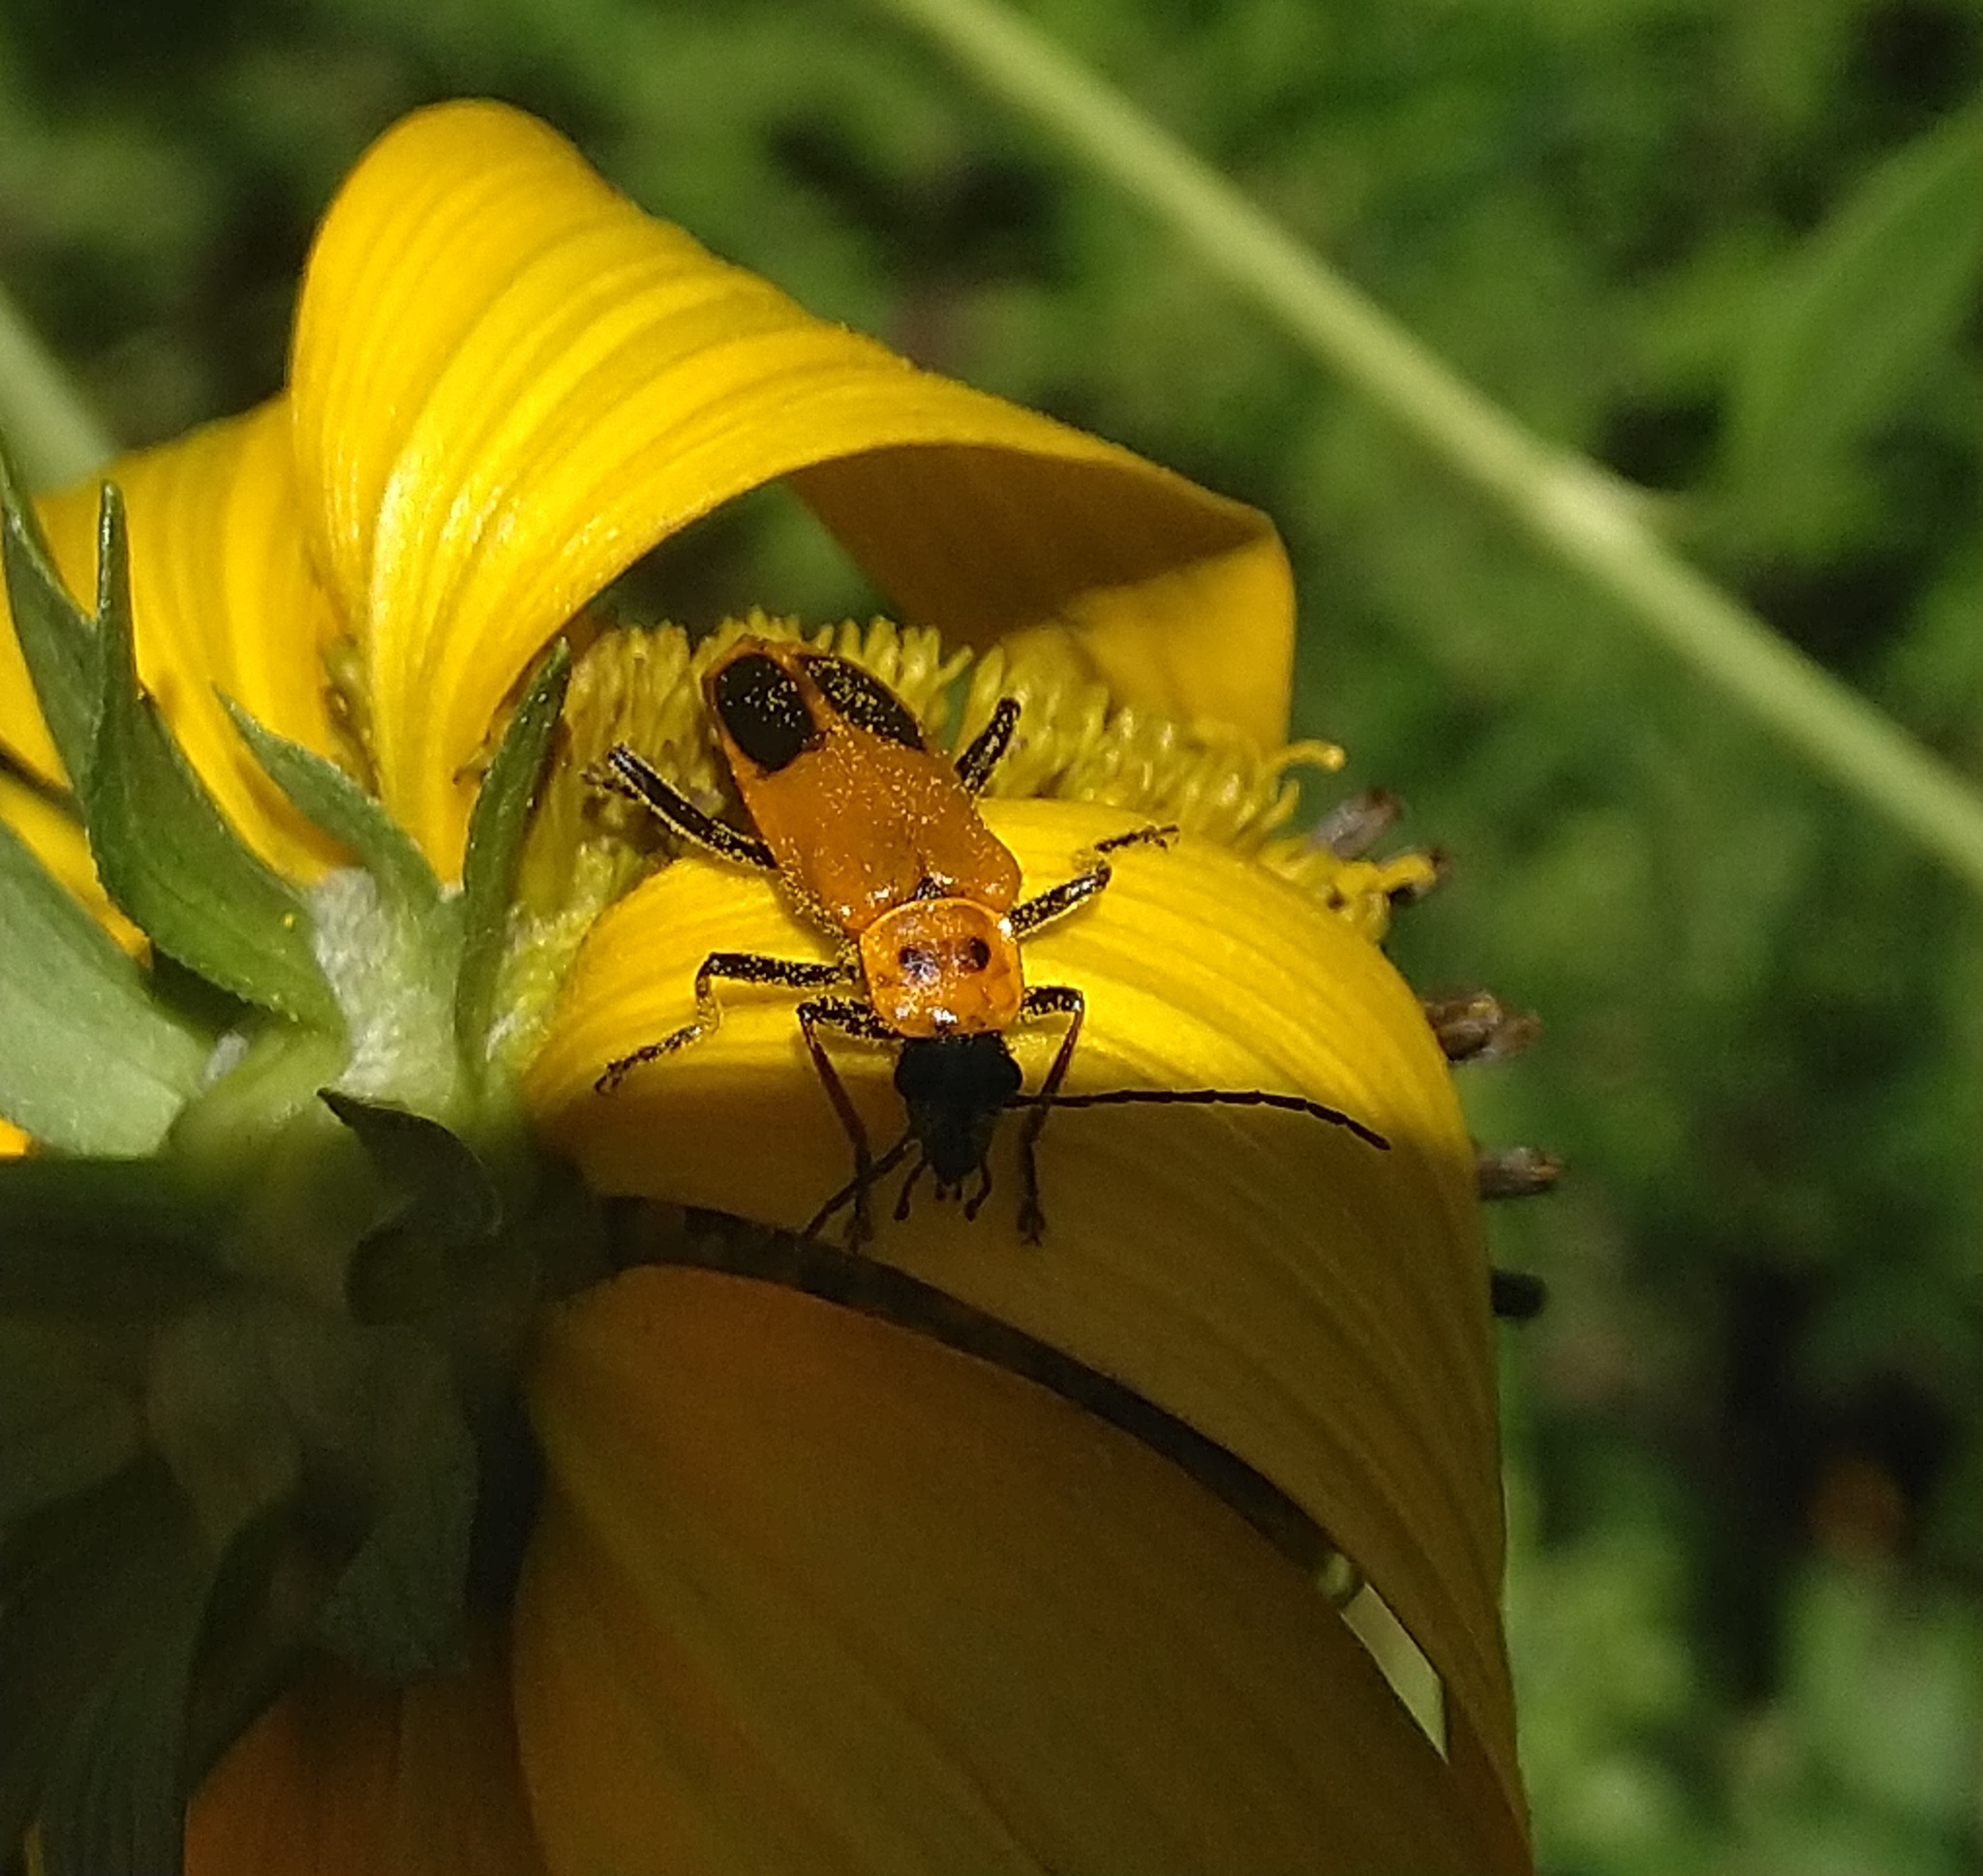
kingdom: Animalia
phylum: Arthropoda
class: Insecta
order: Coleoptera
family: Cantharidae
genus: Chauliognathus
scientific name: Chauliognathus pensylvanicus
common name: Goldenrod soldier beetle
